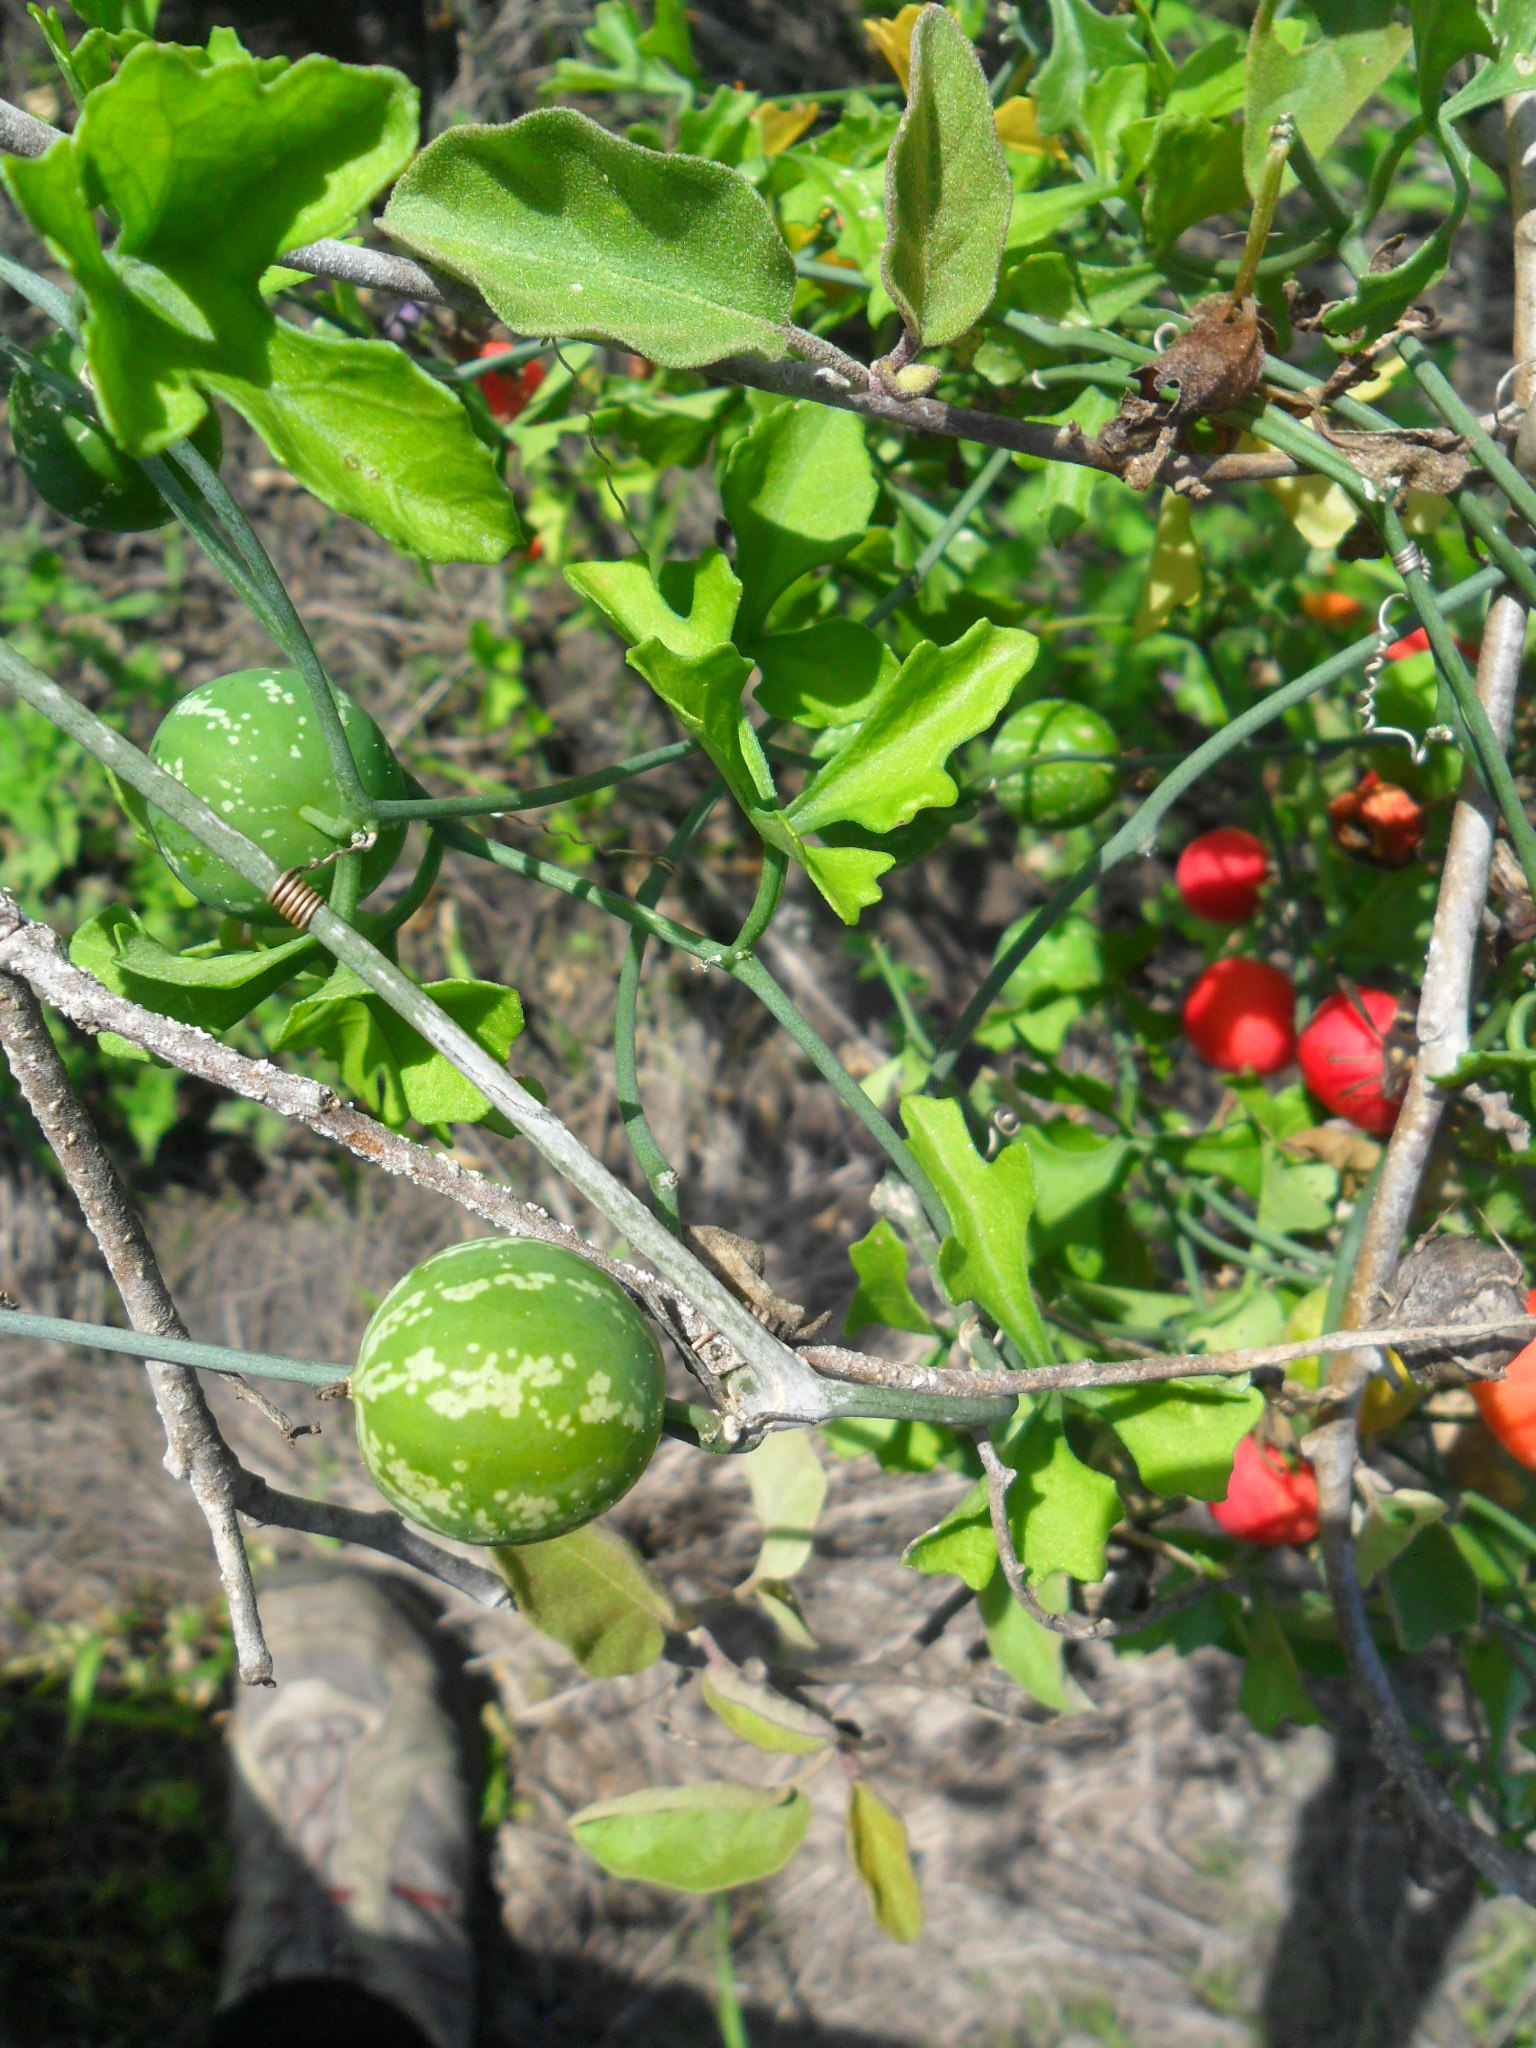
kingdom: Plantae
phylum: Tracheophyta
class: Magnoliopsida
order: Cucurbitales
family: Cucurbitaceae
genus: Ibervillea
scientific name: Ibervillea lindheimeri
